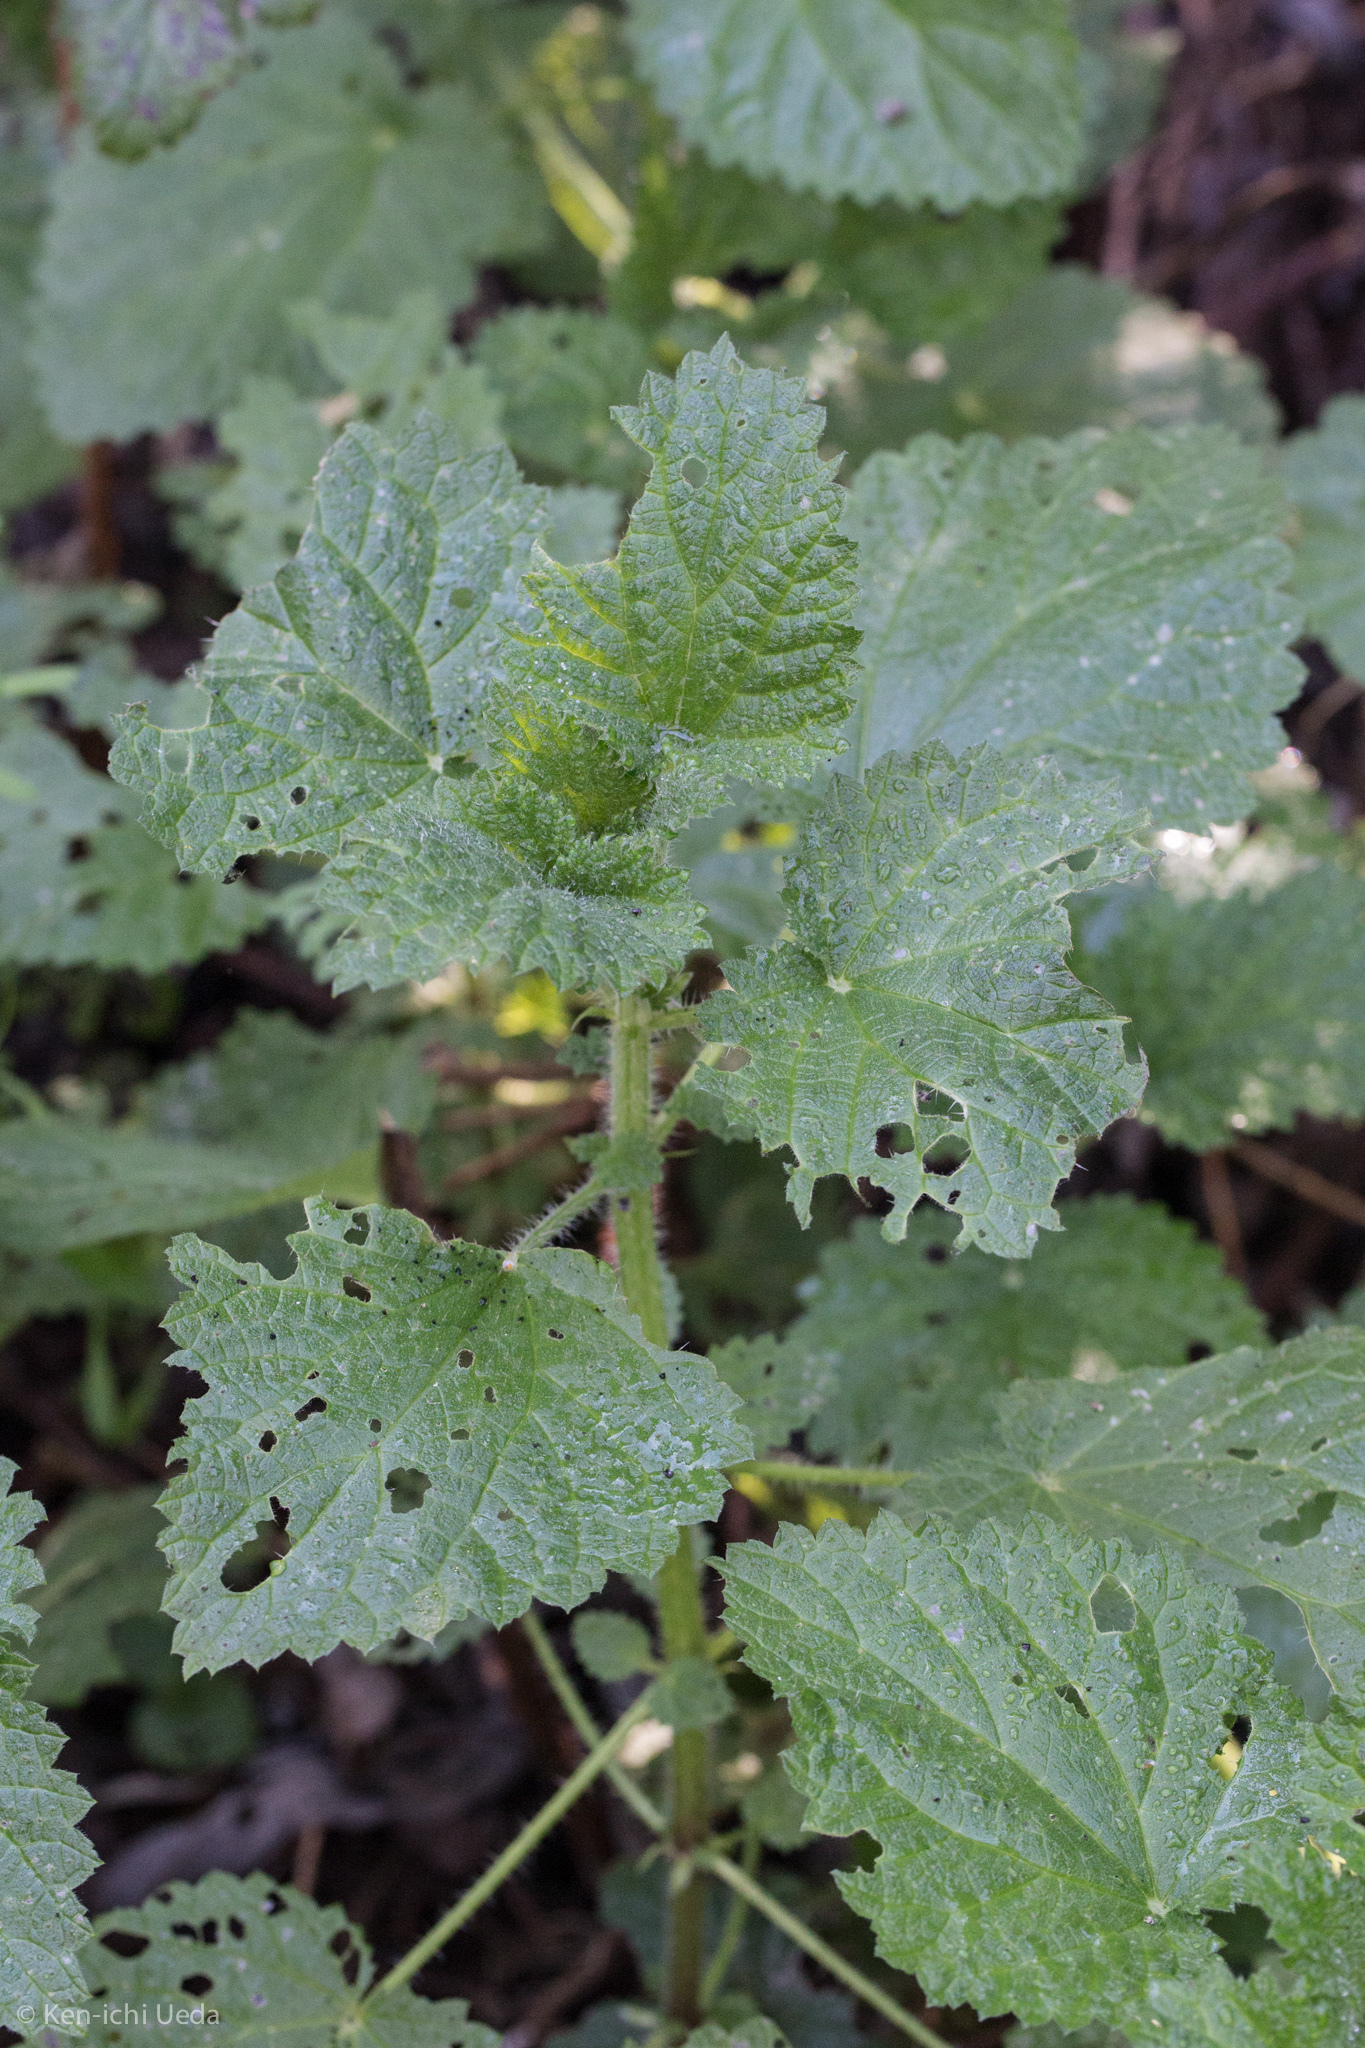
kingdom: Plantae
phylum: Tracheophyta
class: Magnoliopsida
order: Rosales
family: Urticaceae
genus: Urtica
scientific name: Urtica dioica
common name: Common nettle
